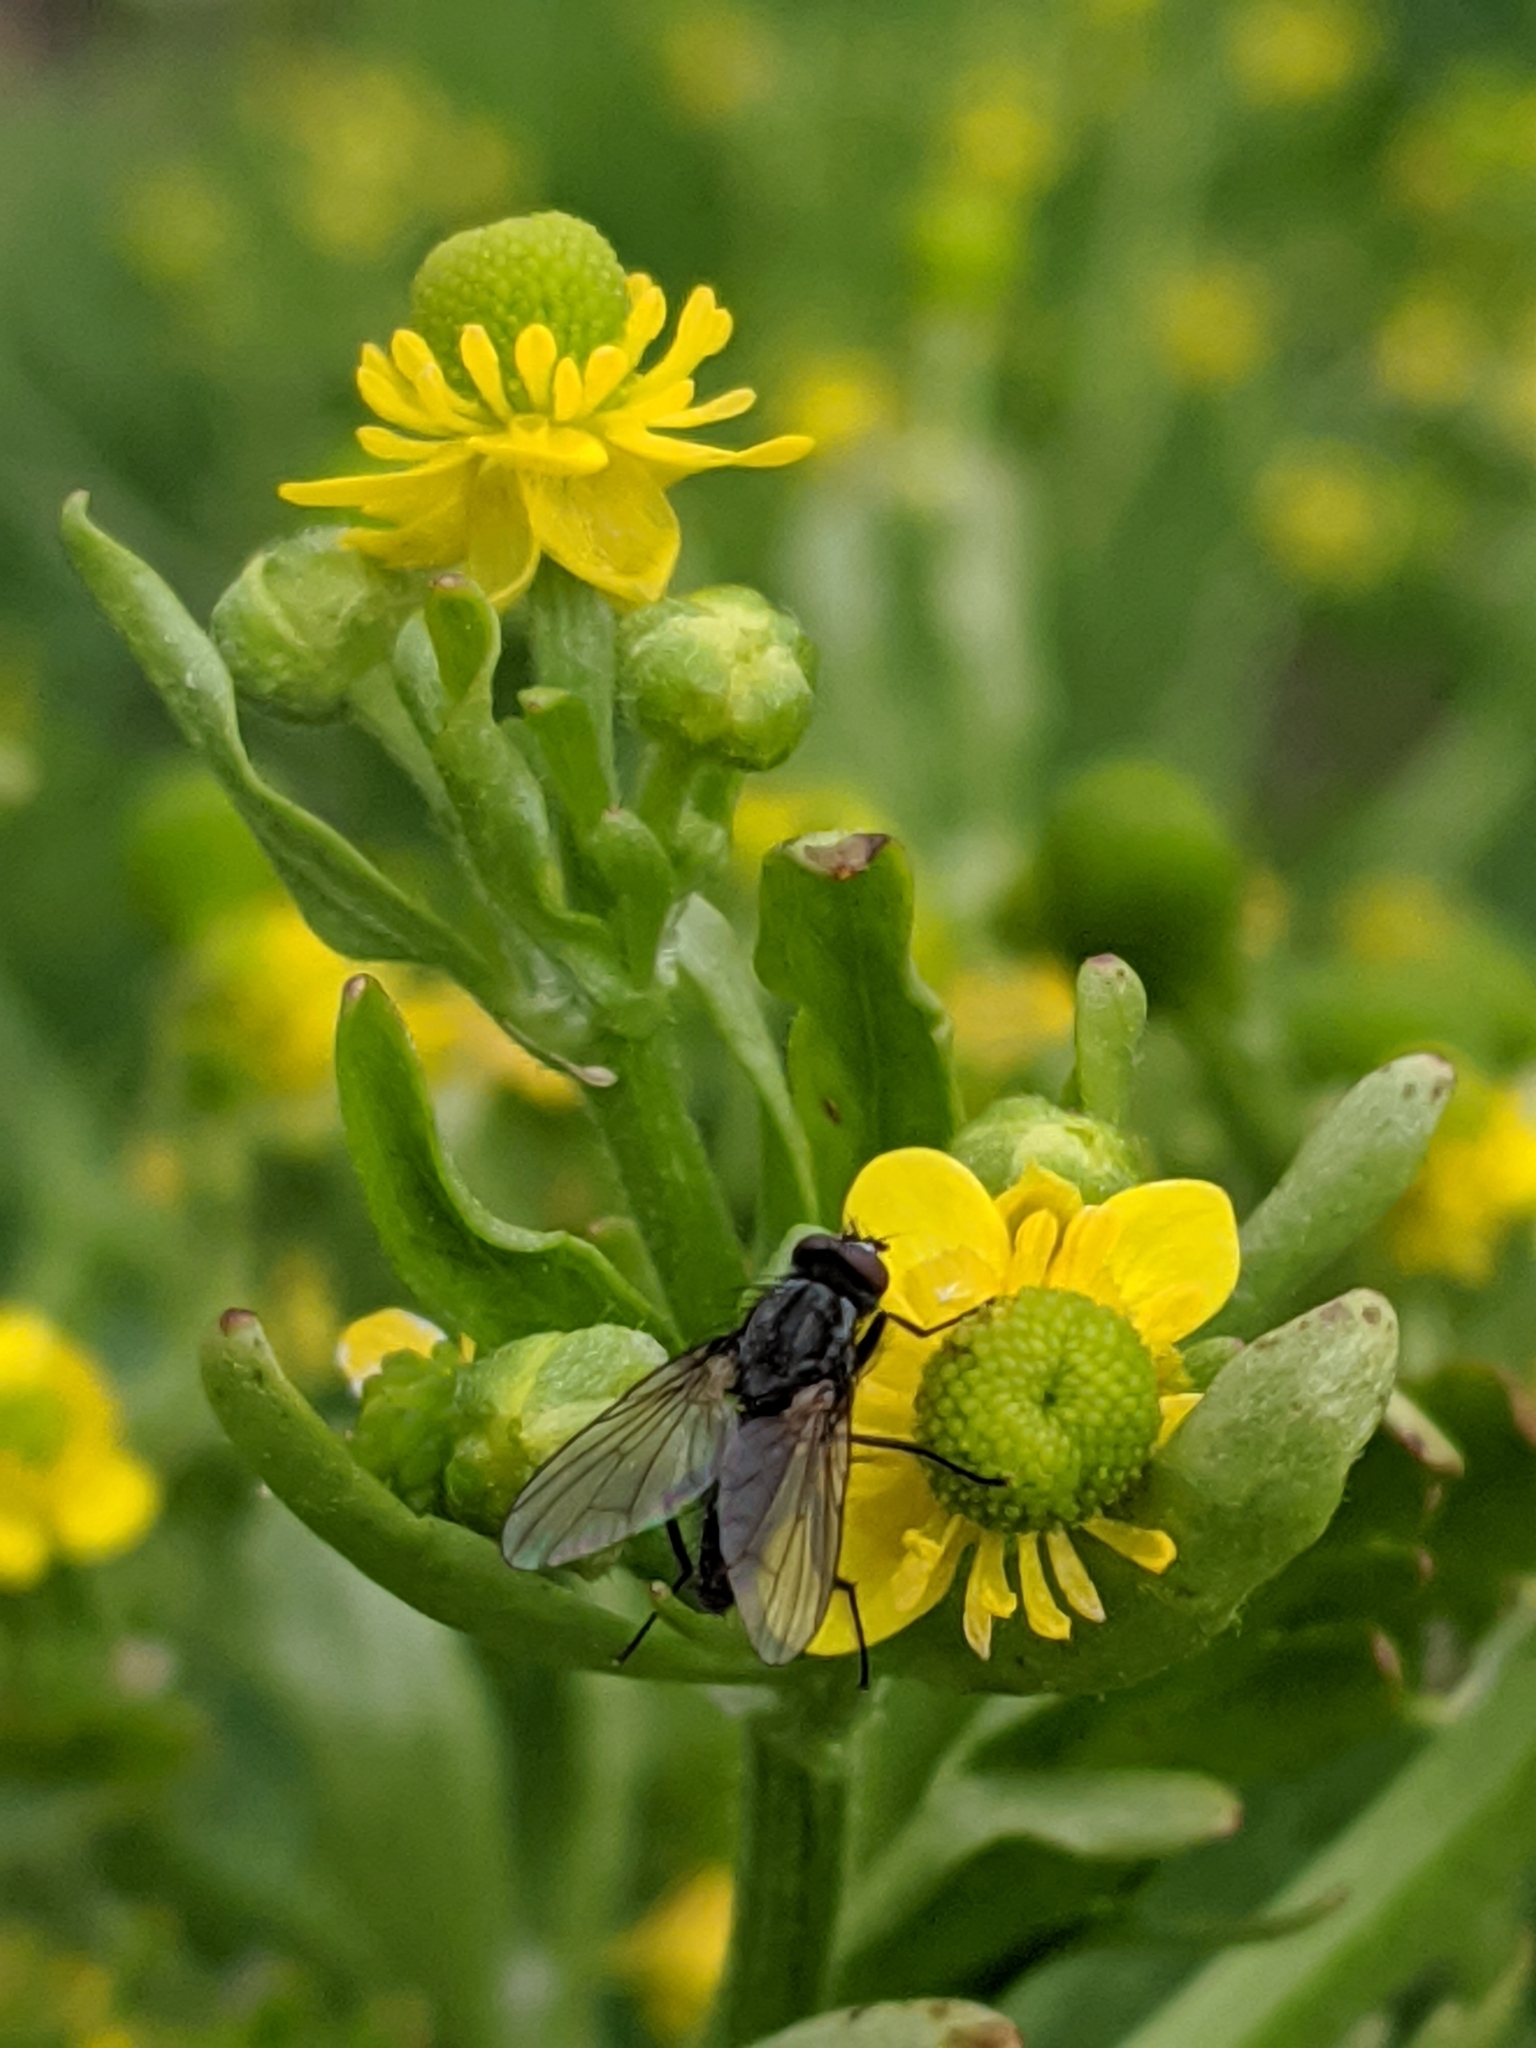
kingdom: Plantae
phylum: Tracheophyta
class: Magnoliopsida
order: Ranunculales
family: Ranunculaceae
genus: Ranunculus
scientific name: Ranunculus sceleratus
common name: Celery-leaved buttercup
